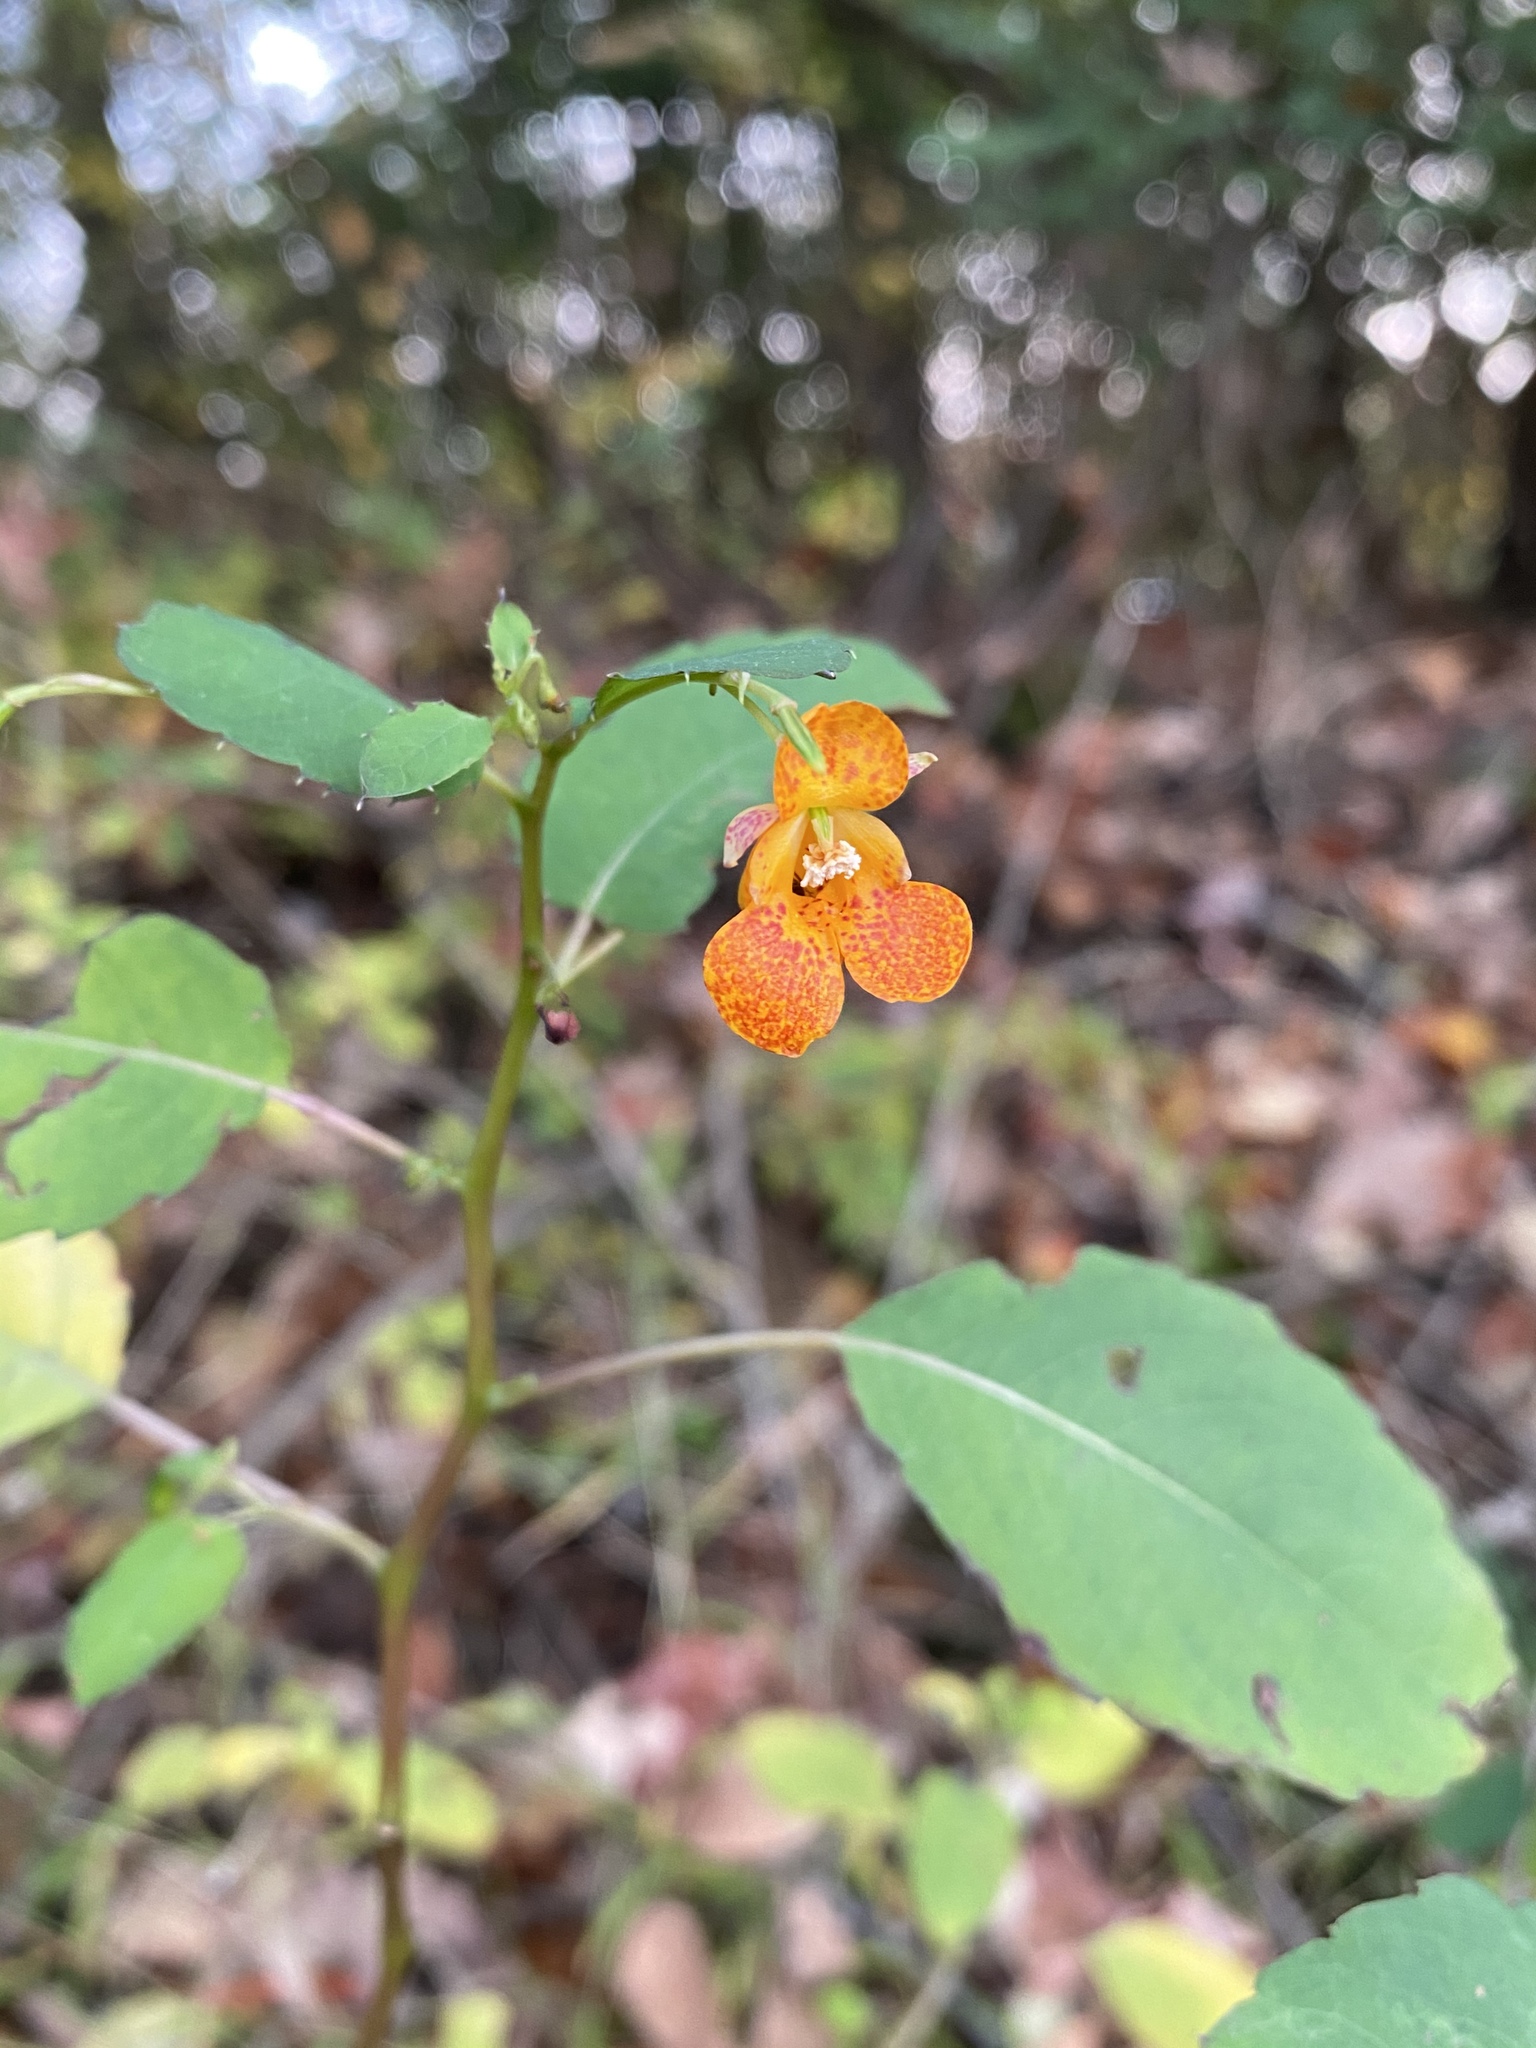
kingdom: Plantae
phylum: Tracheophyta
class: Magnoliopsida
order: Ericales
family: Balsaminaceae
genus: Impatiens
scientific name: Impatiens capensis
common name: Orange balsam
